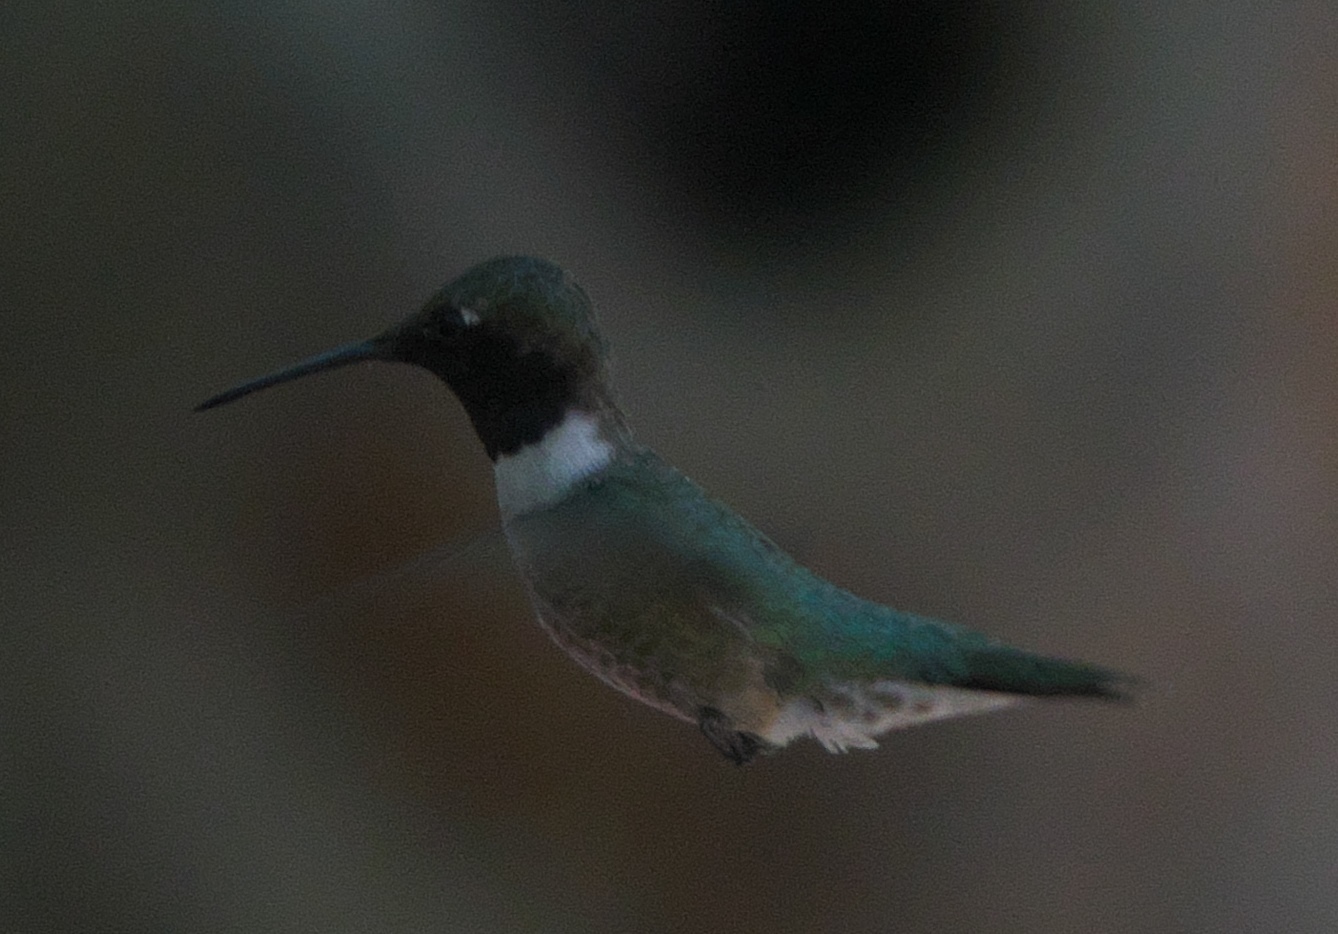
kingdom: Animalia
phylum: Chordata
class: Aves
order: Apodiformes
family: Trochilidae
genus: Archilochus
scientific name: Archilochus alexandri
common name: Black-chinned hummingbird
